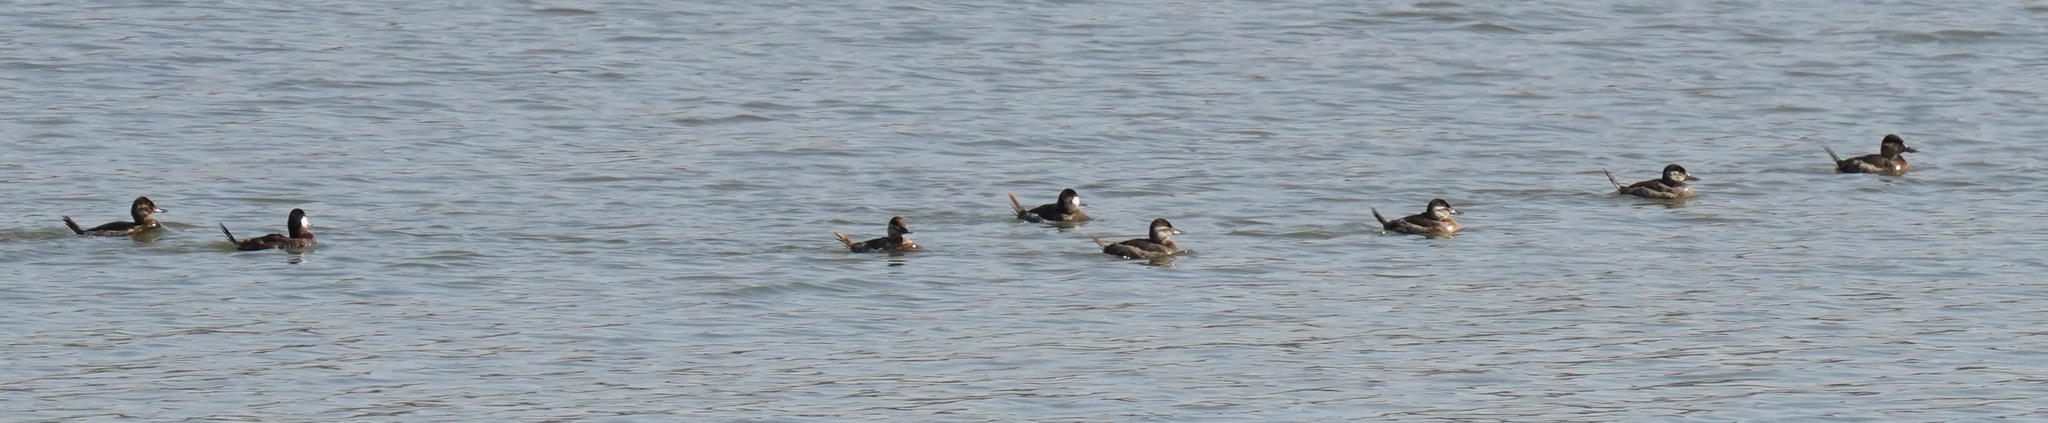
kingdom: Animalia
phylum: Chordata
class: Aves
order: Anseriformes
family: Anatidae
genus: Oxyura
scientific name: Oxyura jamaicensis
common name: Ruddy duck
